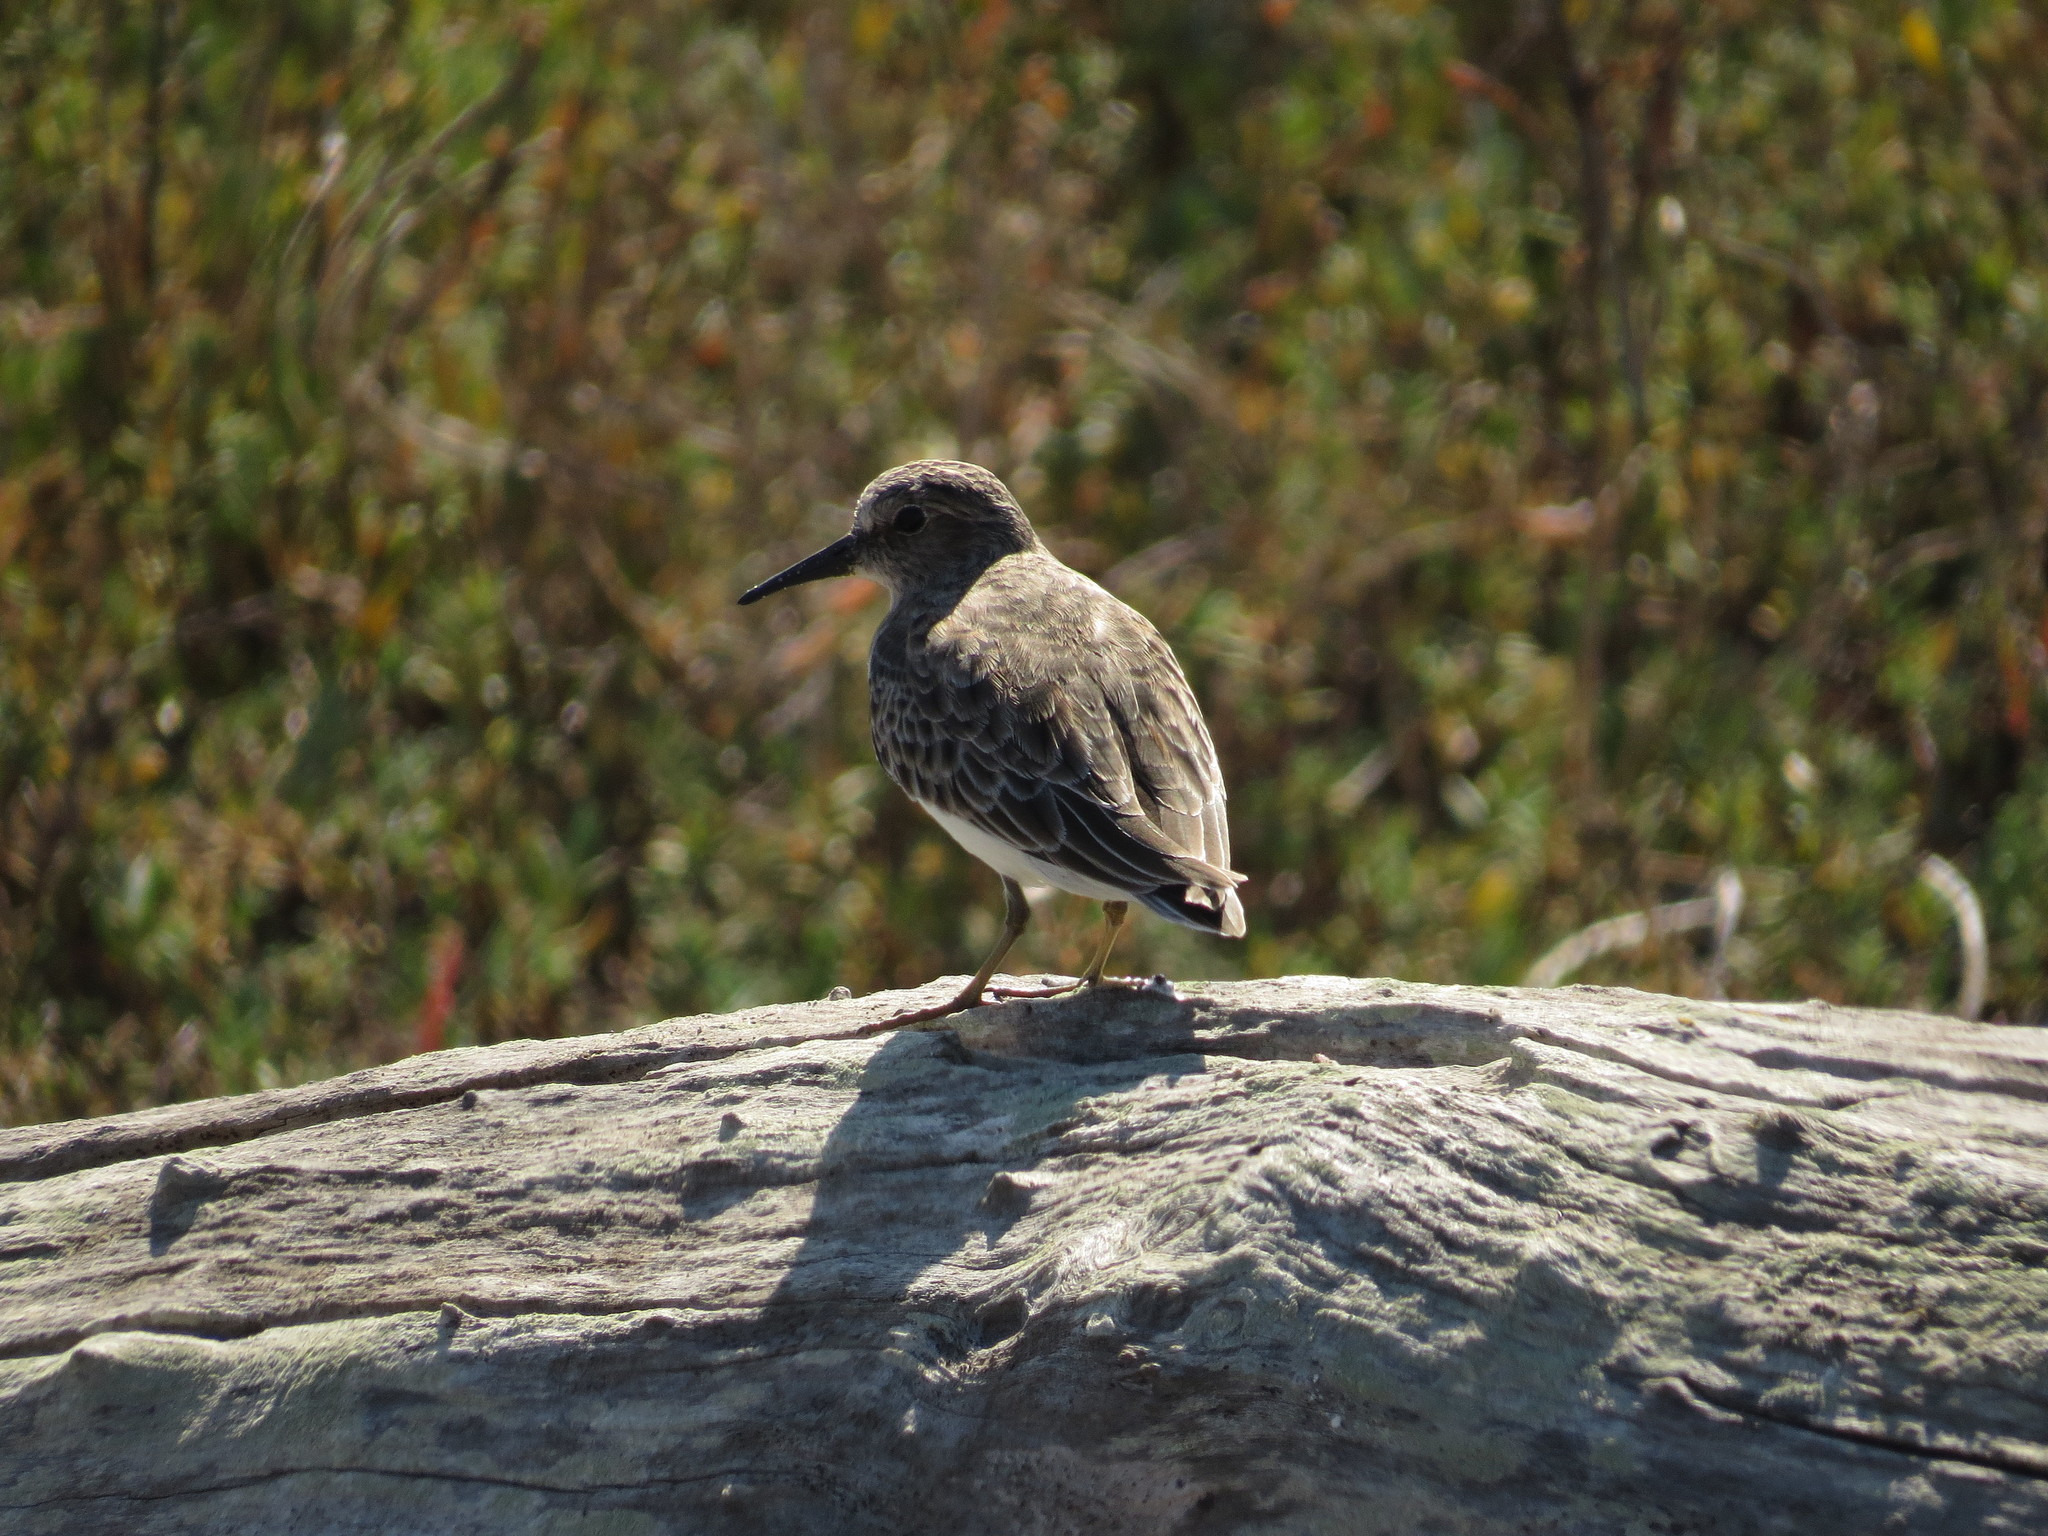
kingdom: Animalia
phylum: Chordata
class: Aves
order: Charadriiformes
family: Scolopacidae
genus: Calidris
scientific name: Calidris minutilla
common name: Least sandpiper
